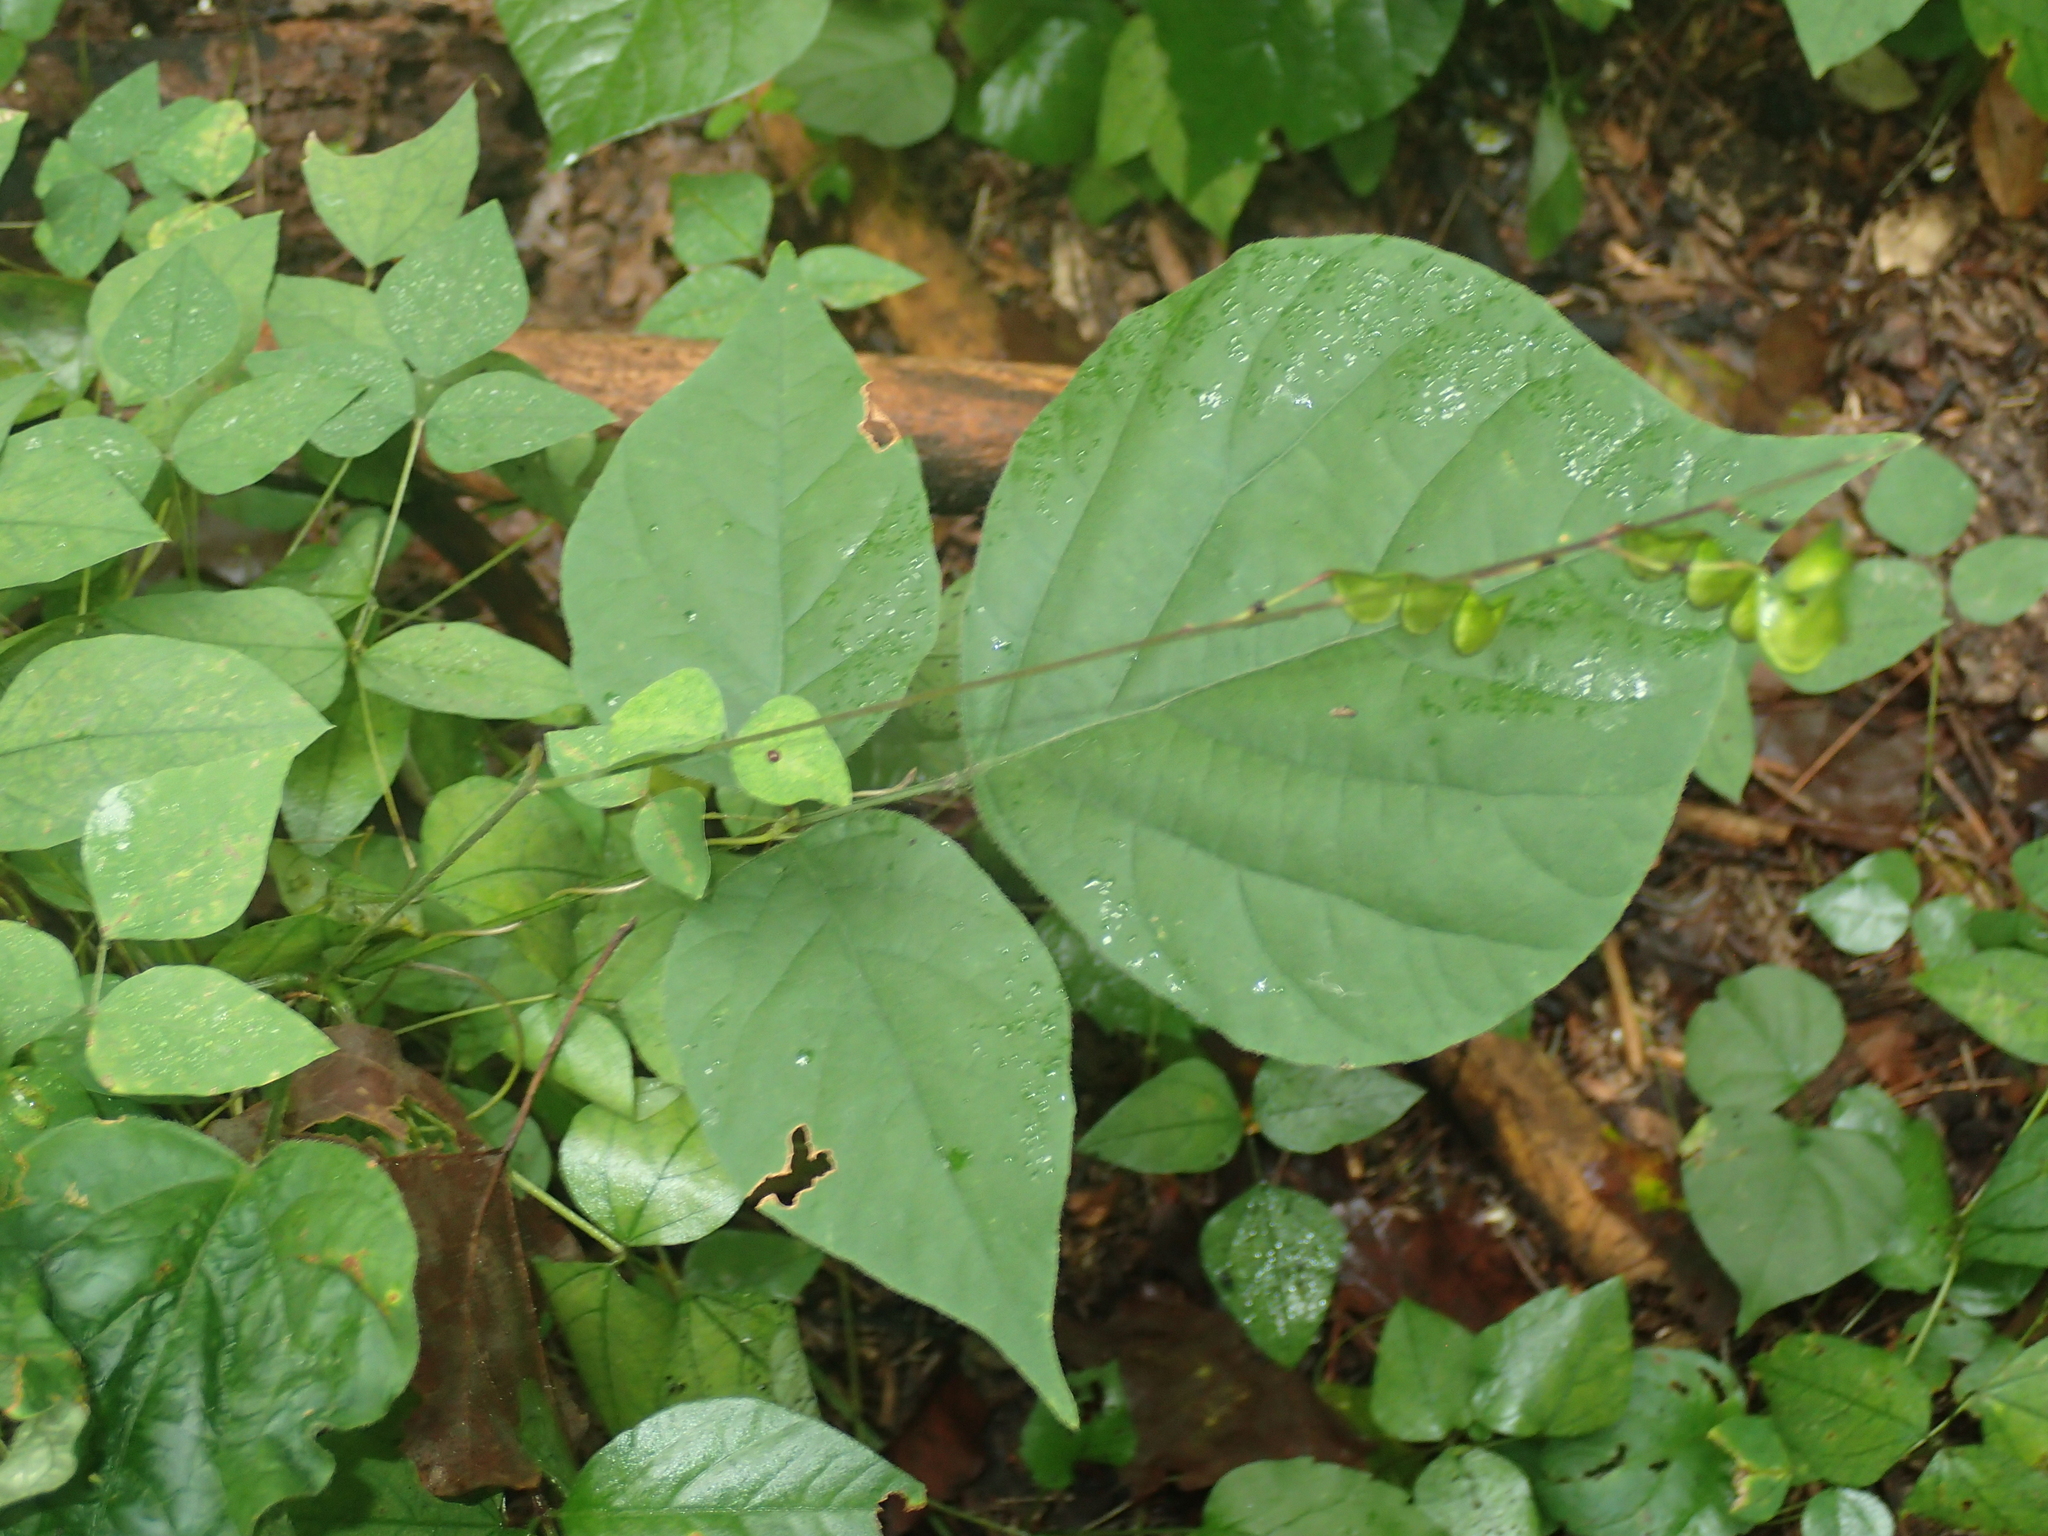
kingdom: Plantae
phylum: Tracheophyta
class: Magnoliopsida
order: Fabales
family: Fabaceae
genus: Hylodesmum
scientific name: Hylodesmum glutinosum
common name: Clustered-leaved tick-trefoil
